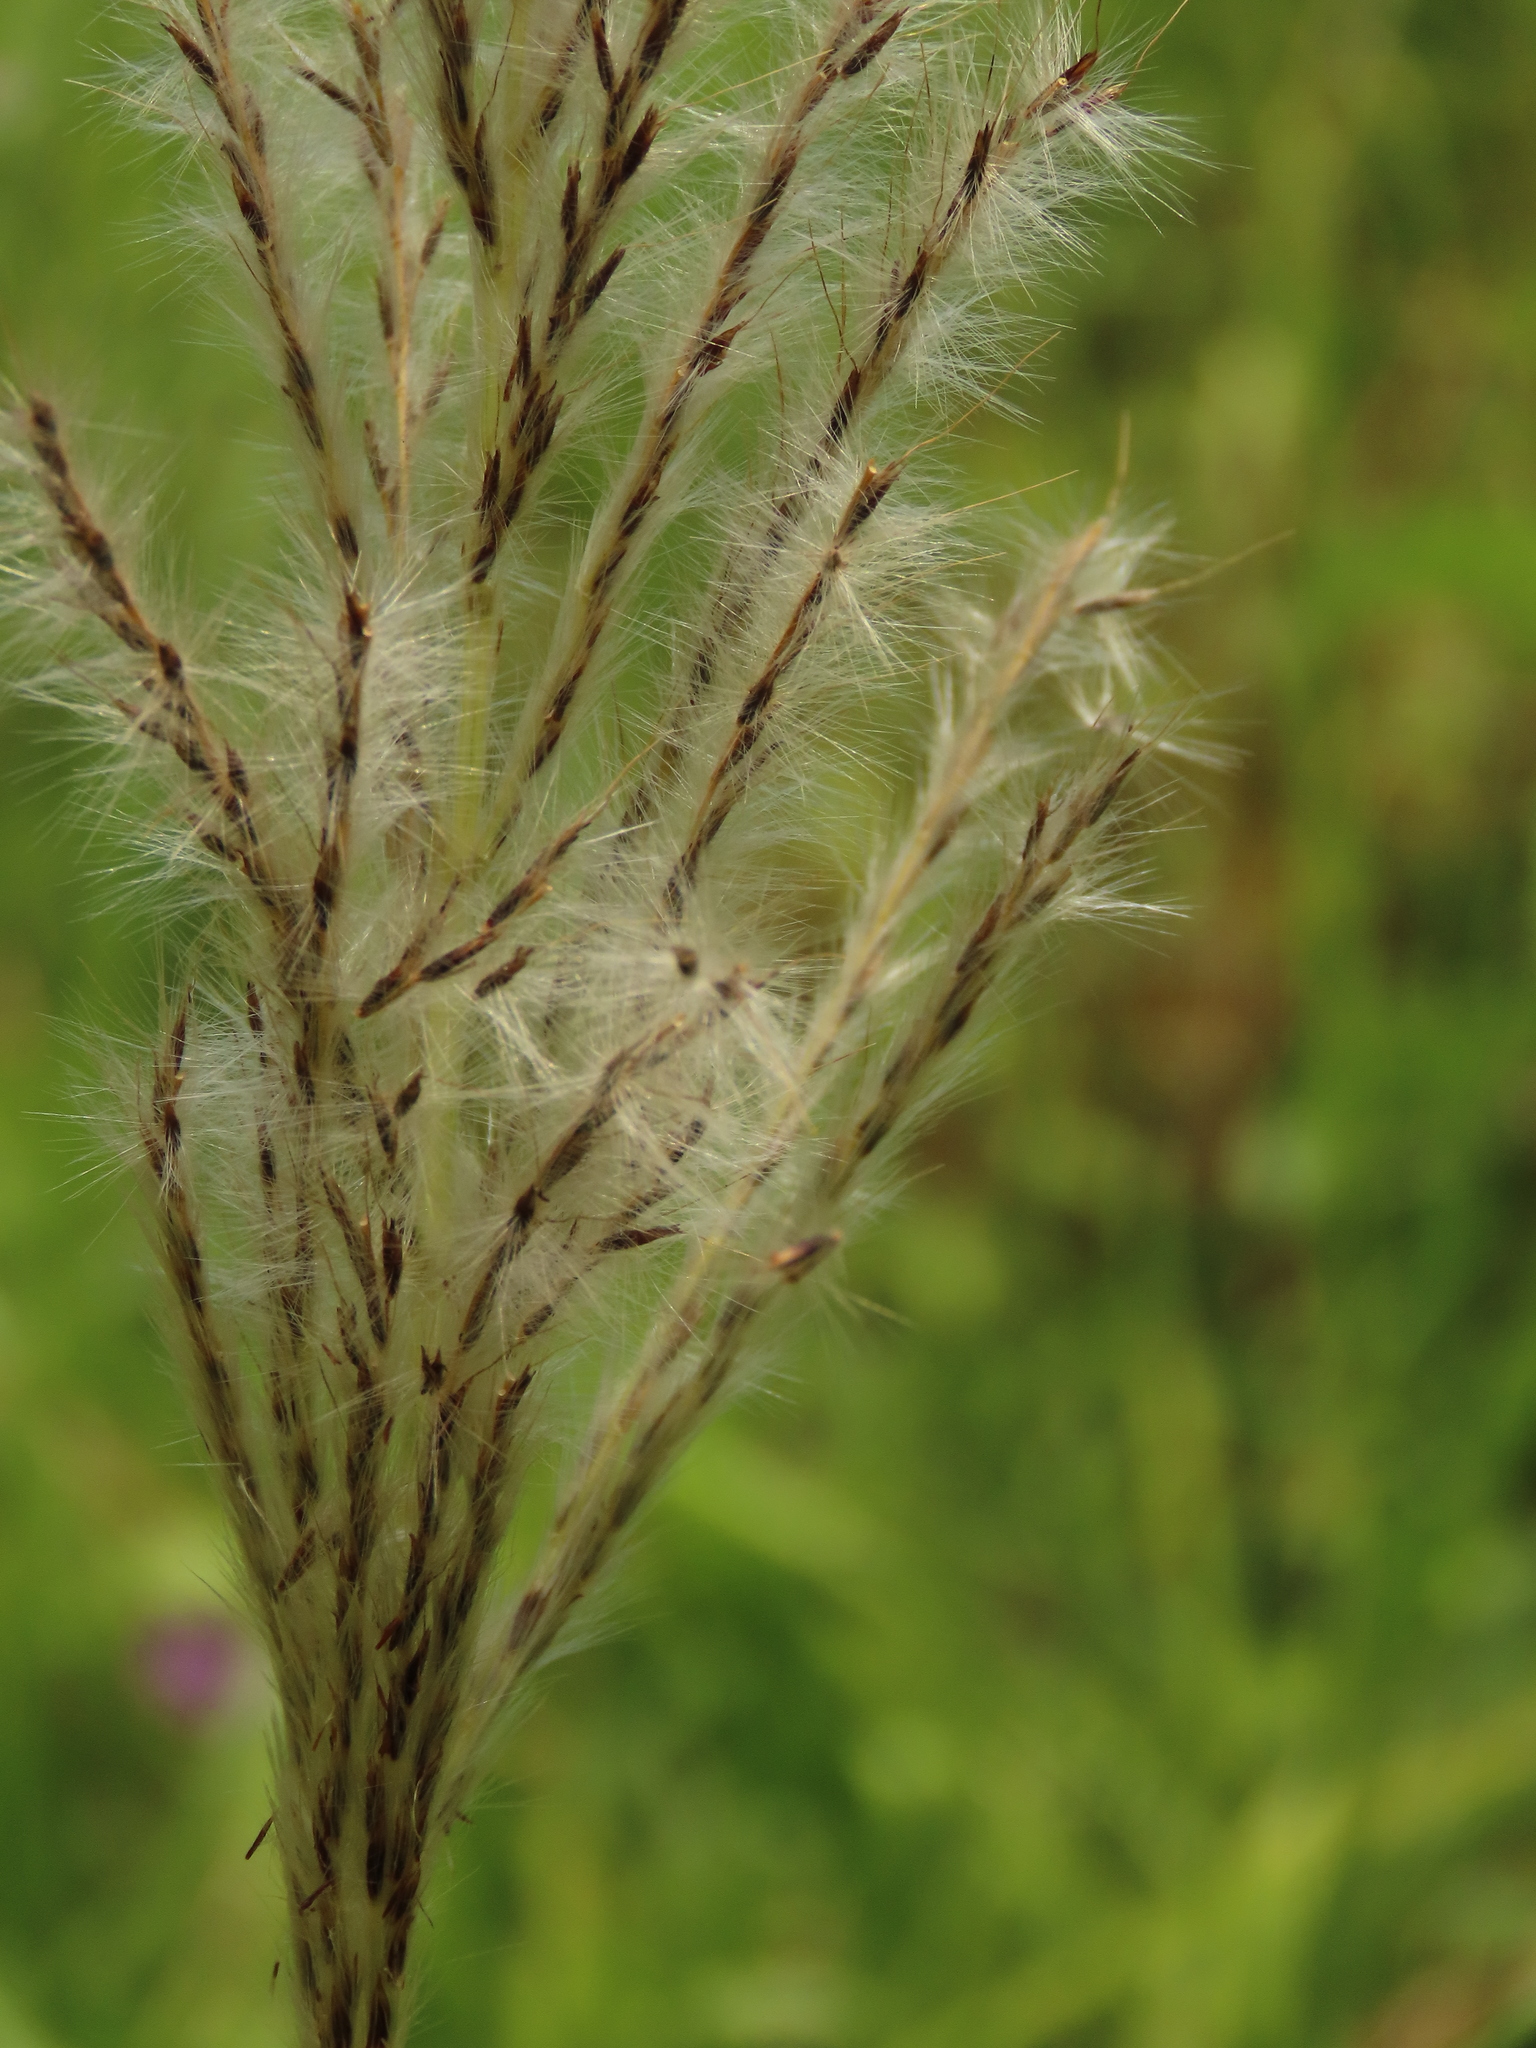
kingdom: Plantae
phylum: Tracheophyta
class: Liliopsida
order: Poales
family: Poaceae
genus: Saccharum
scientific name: Saccharum formosanum
